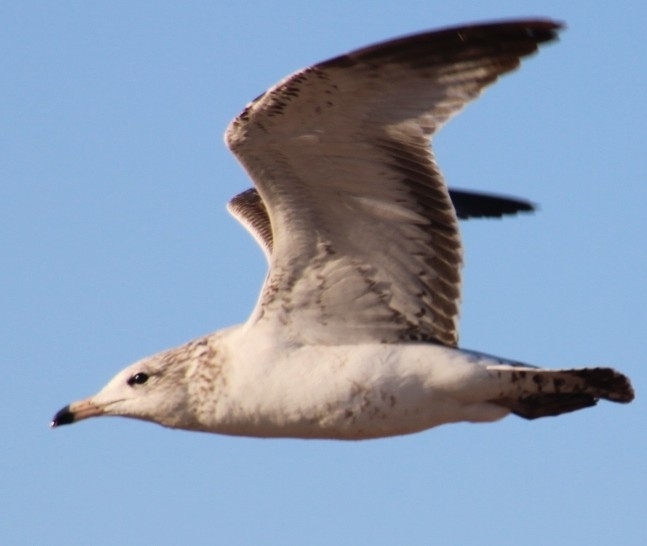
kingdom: Animalia
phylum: Chordata
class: Aves
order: Charadriiformes
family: Laridae
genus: Larus
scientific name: Larus californicus
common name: California gull
